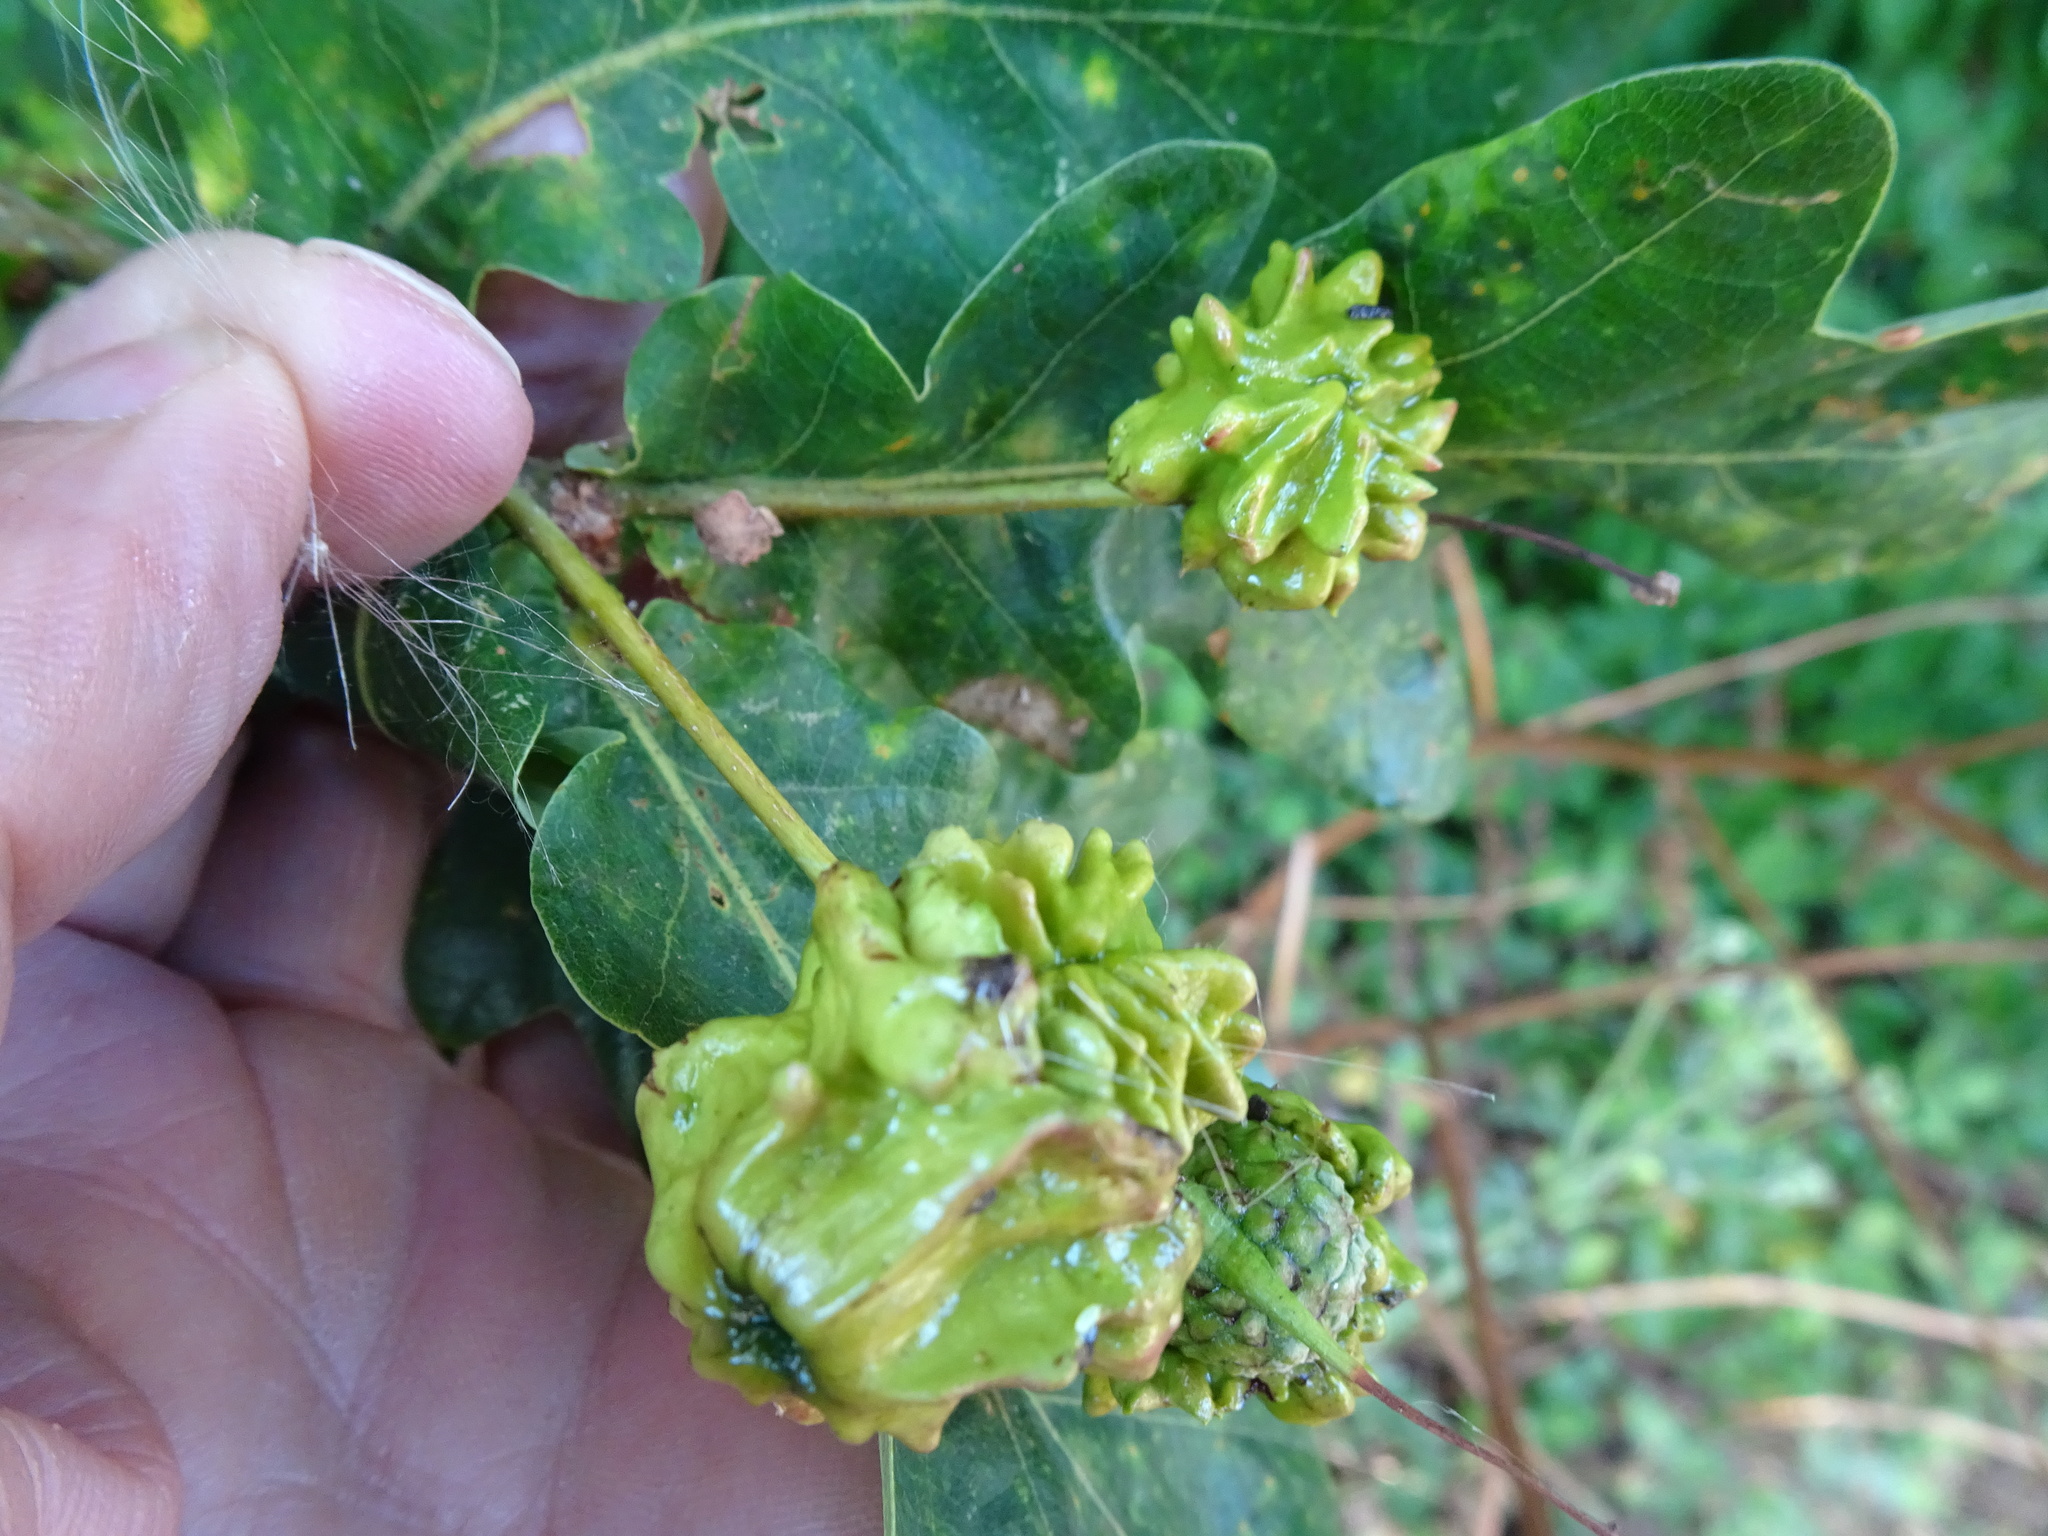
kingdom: Plantae
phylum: Tracheophyta
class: Magnoliopsida
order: Fagales
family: Fagaceae
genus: Quercus
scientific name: Quercus robur
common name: Pedunculate oak
